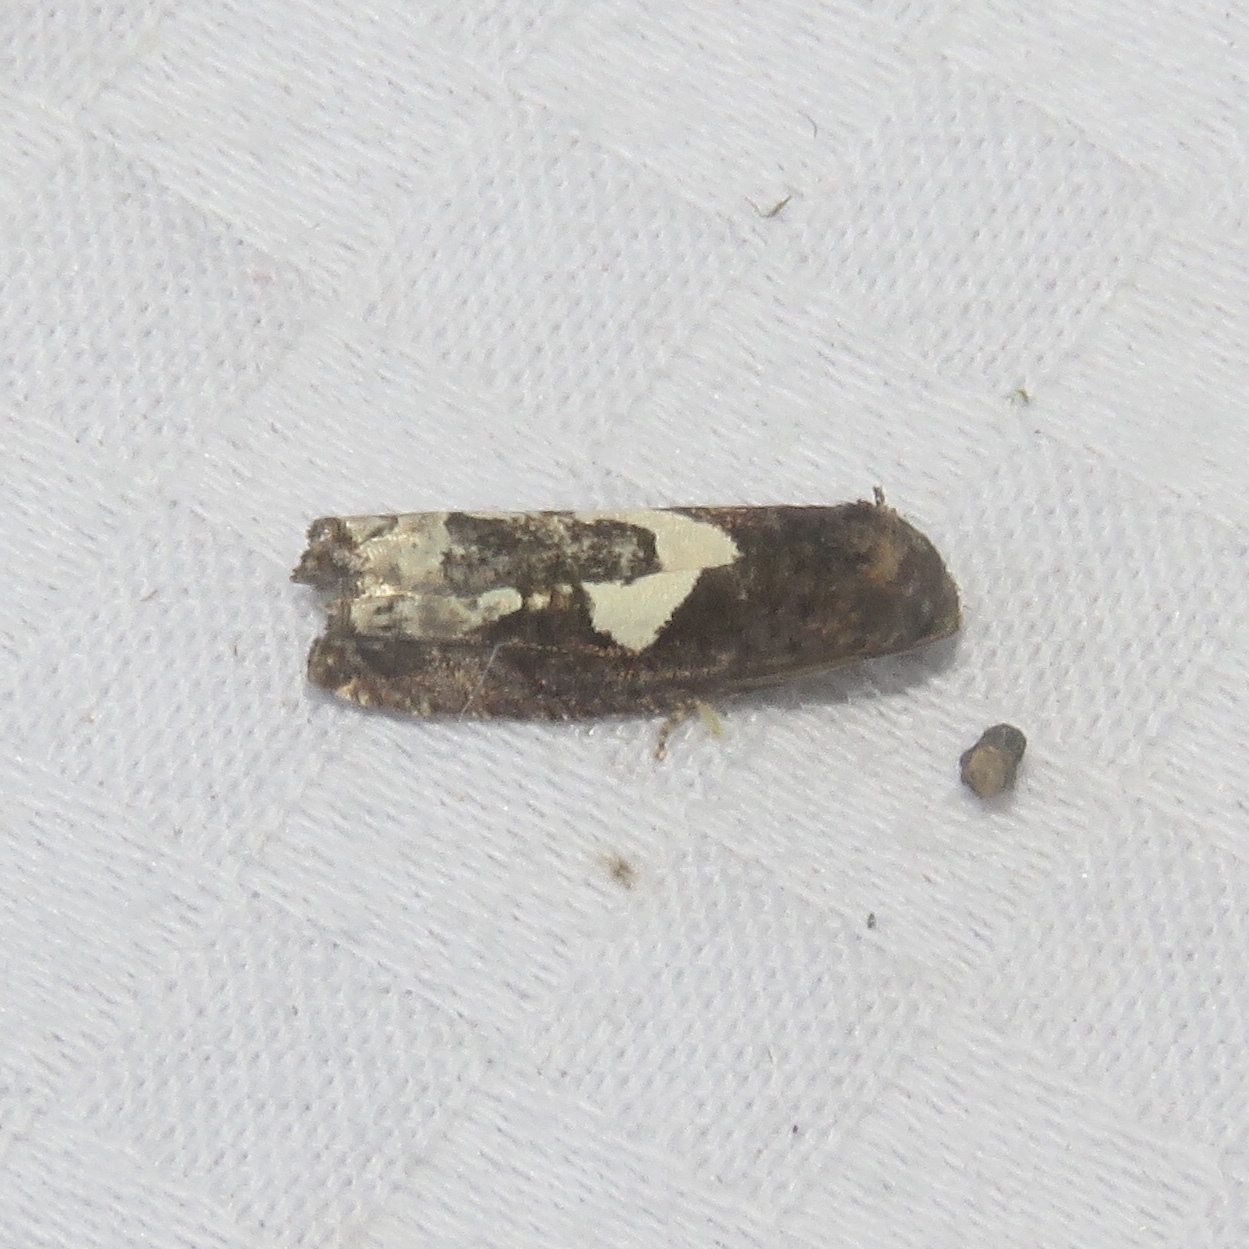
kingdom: Animalia
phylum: Arthropoda
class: Insecta
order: Lepidoptera
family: Tortricidae
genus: Epiblema
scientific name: Epiblema otiosana
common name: Bidens borer moth
